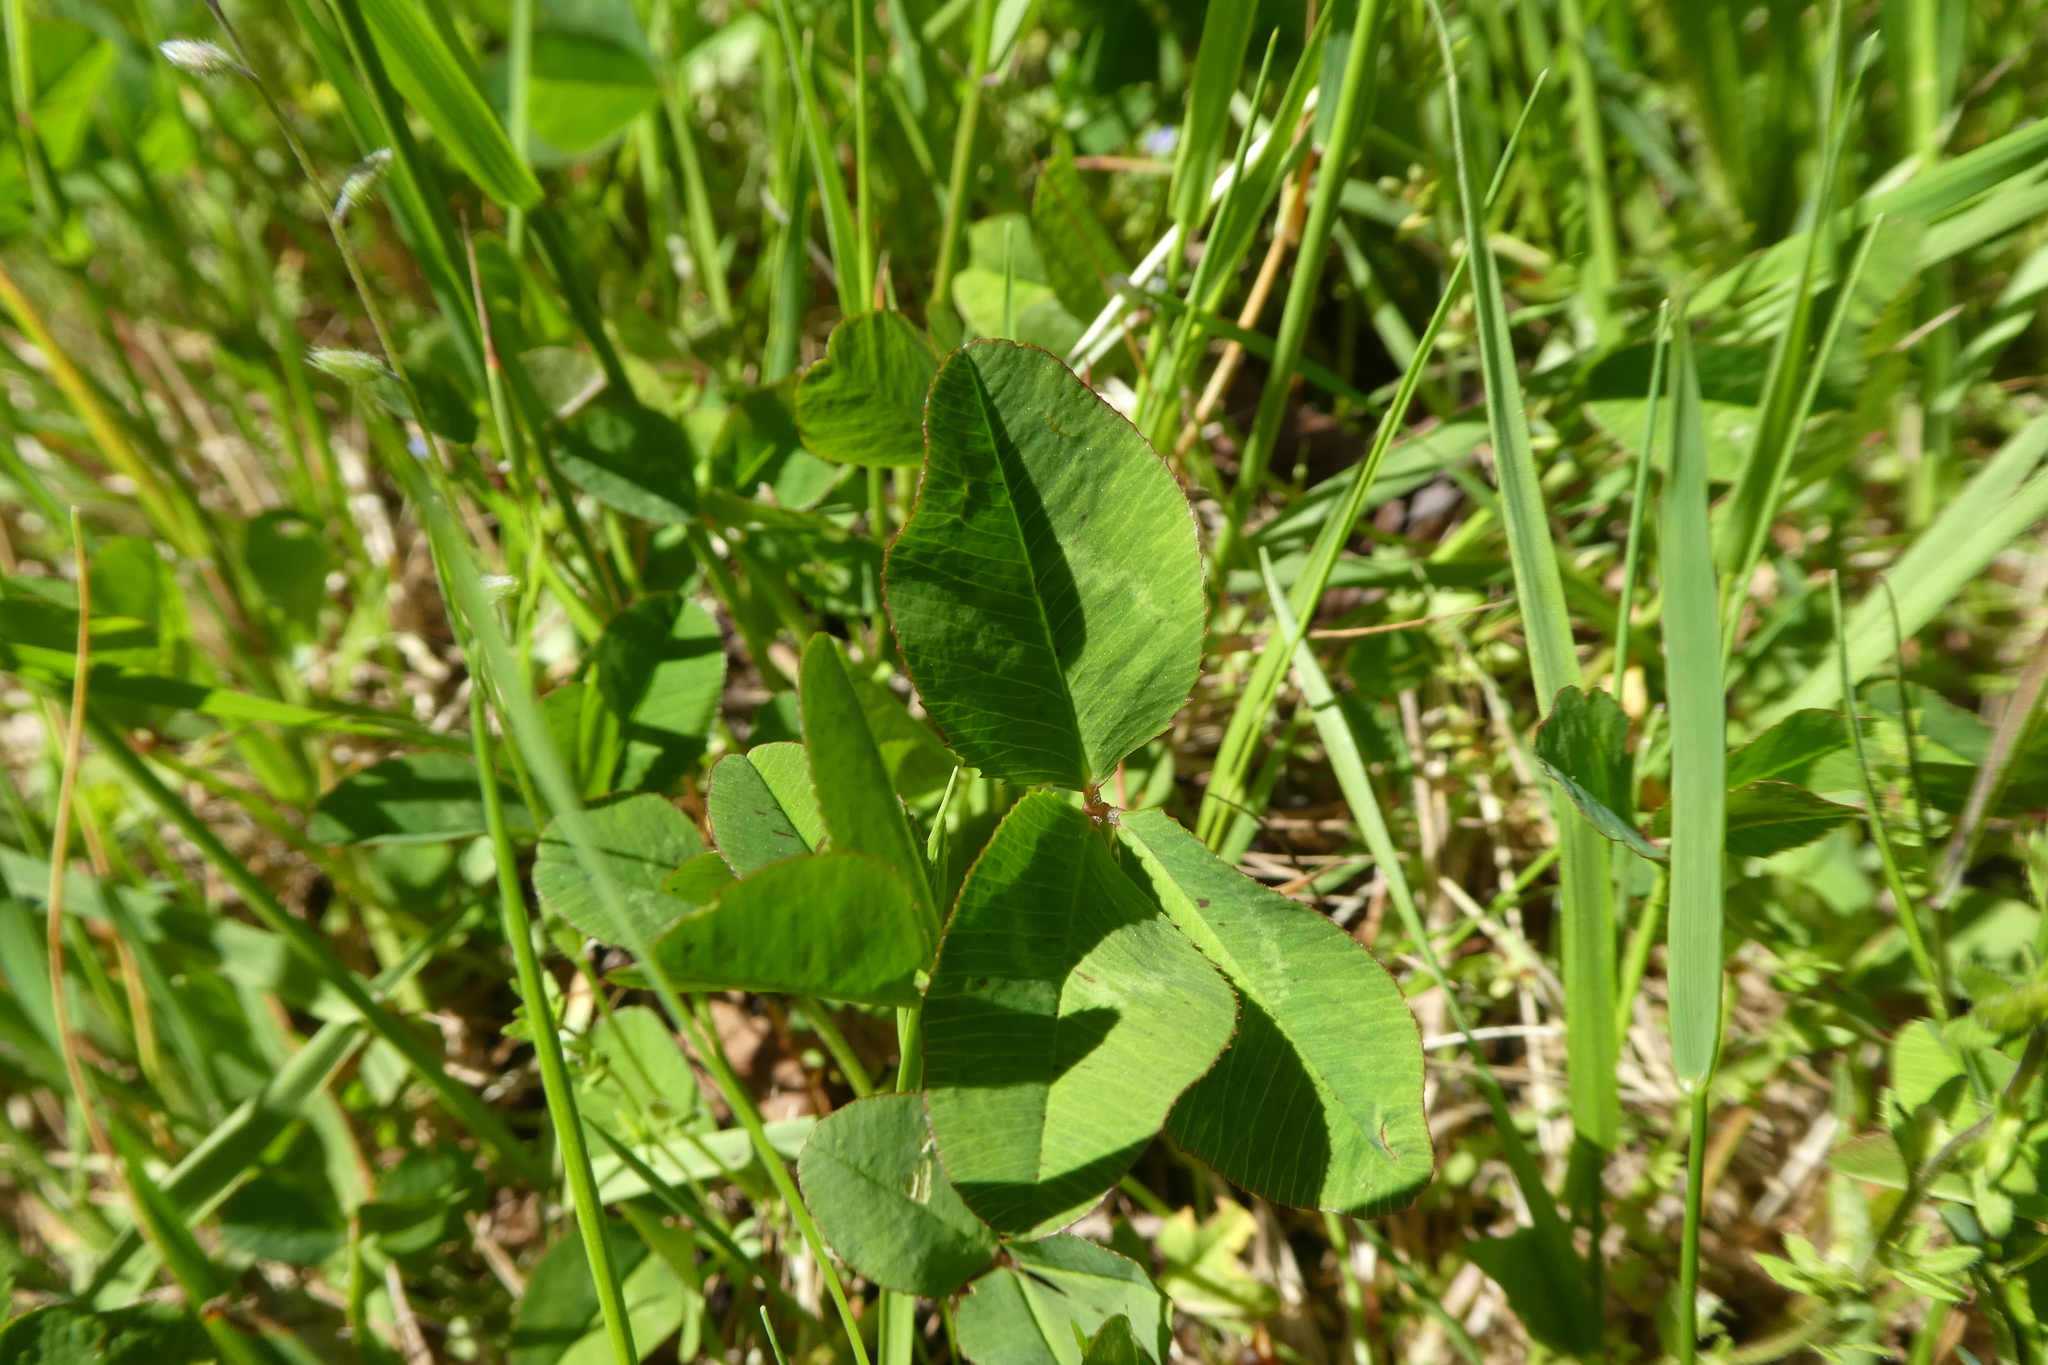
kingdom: Plantae
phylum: Tracheophyta
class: Magnoliopsida
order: Fabales
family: Fabaceae
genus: Trifolium
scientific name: Trifolium repens
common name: White clover
